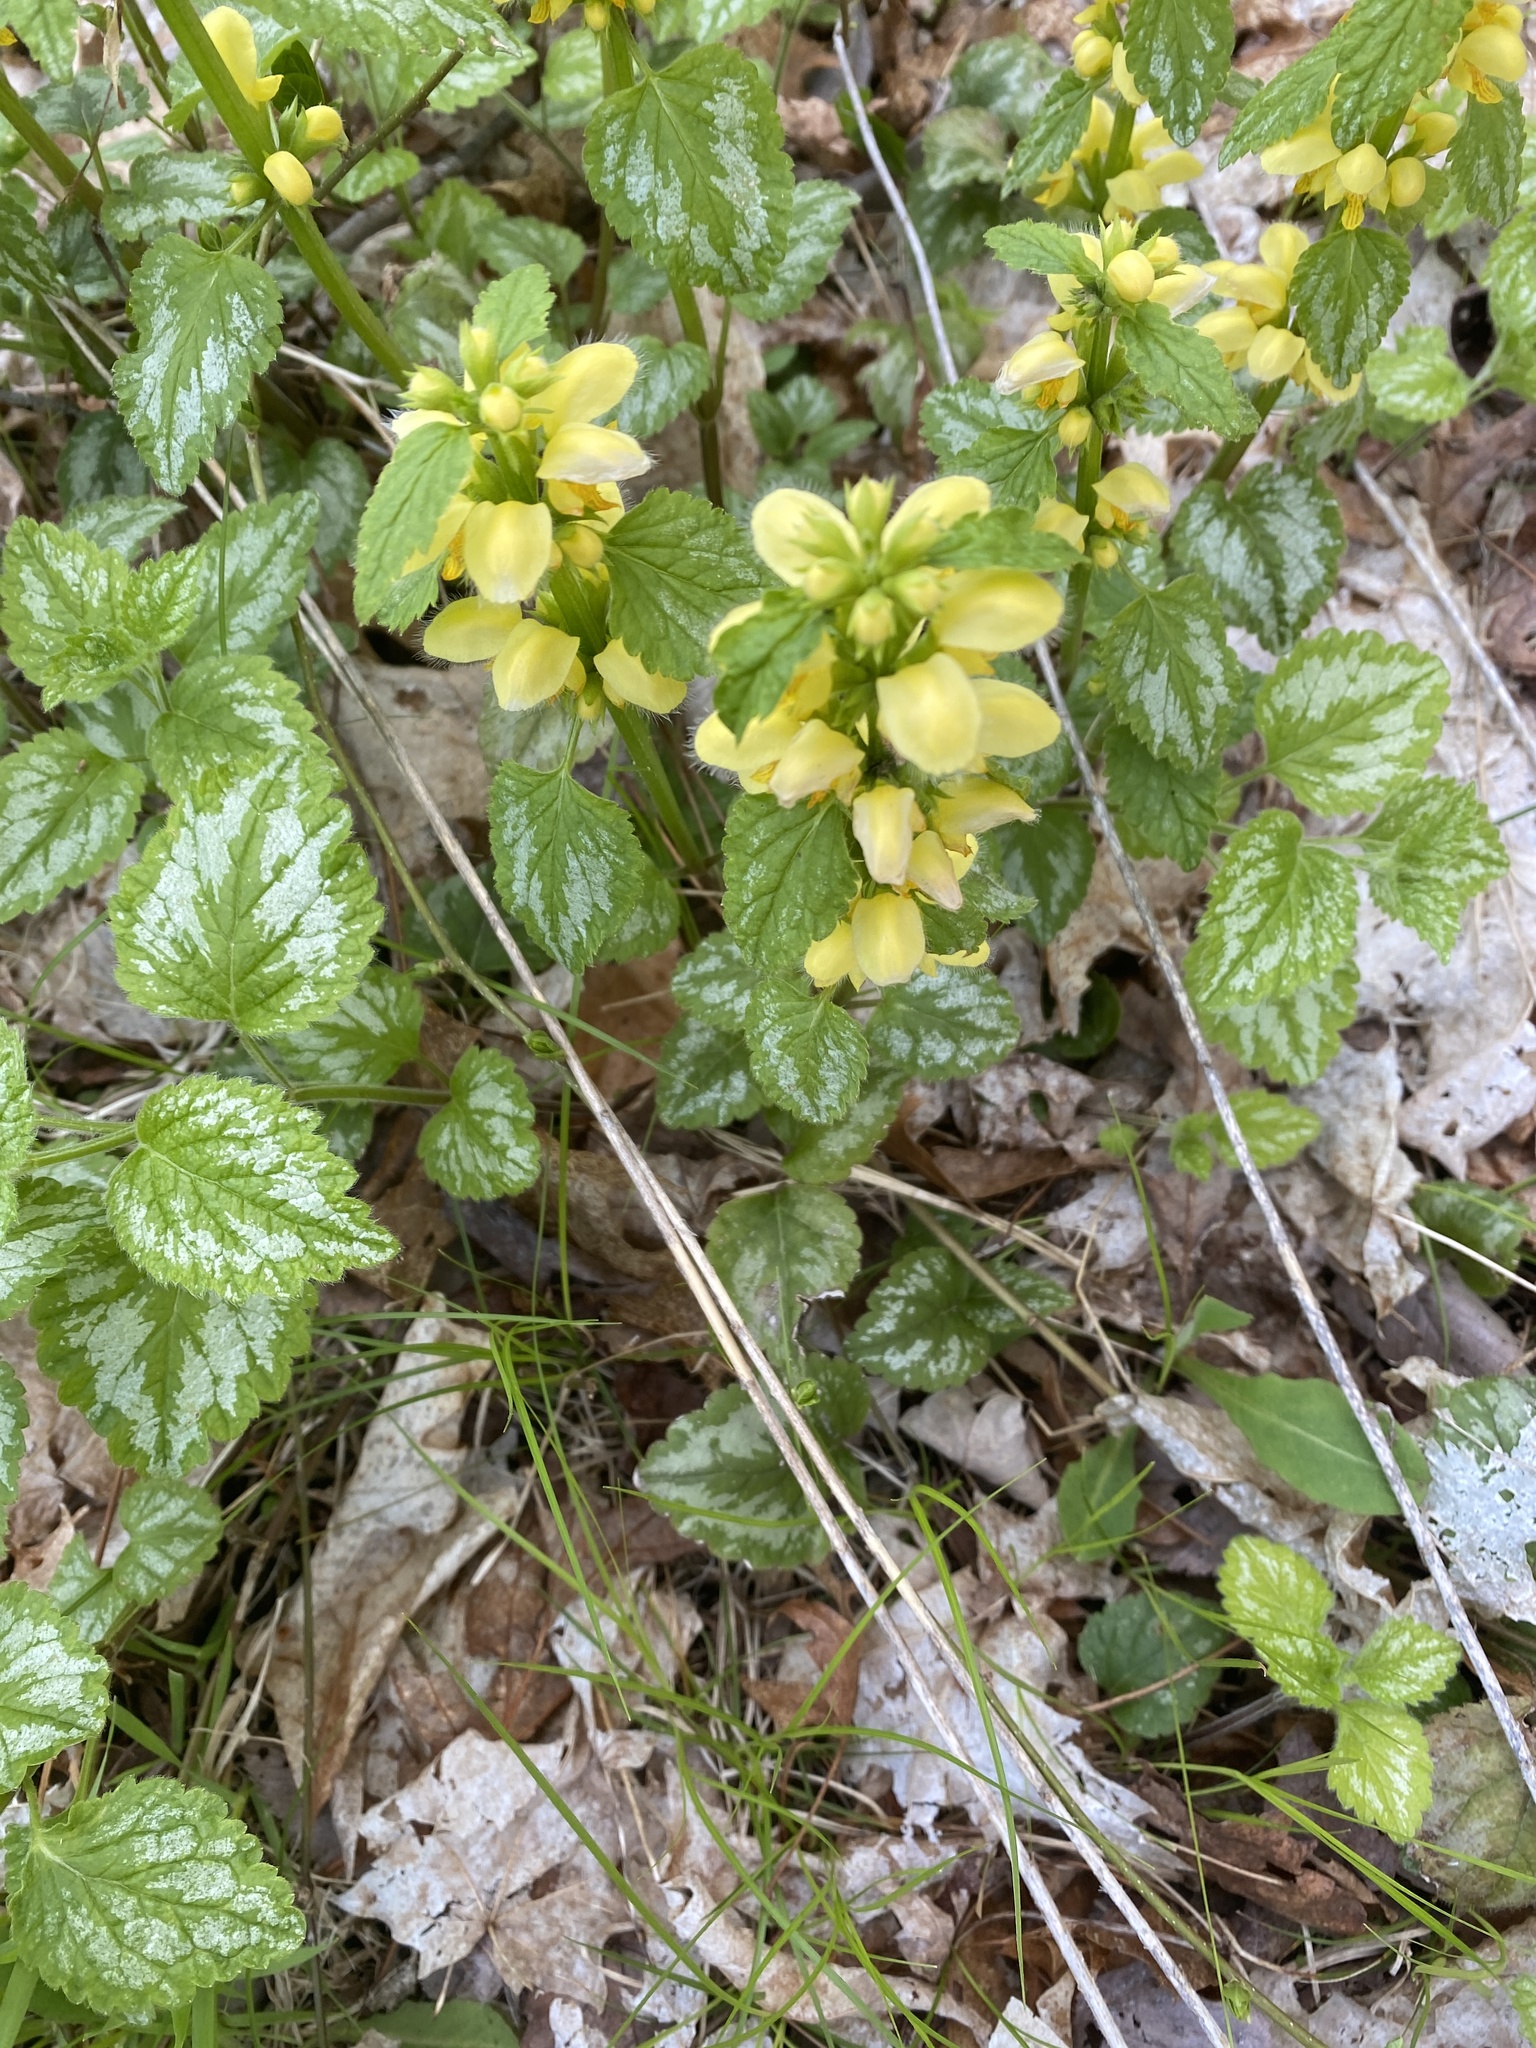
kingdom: Plantae
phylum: Tracheophyta
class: Magnoliopsida
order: Lamiales
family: Lamiaceae
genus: Lamium
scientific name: Lamium galeobdolon
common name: Yellow archangel
